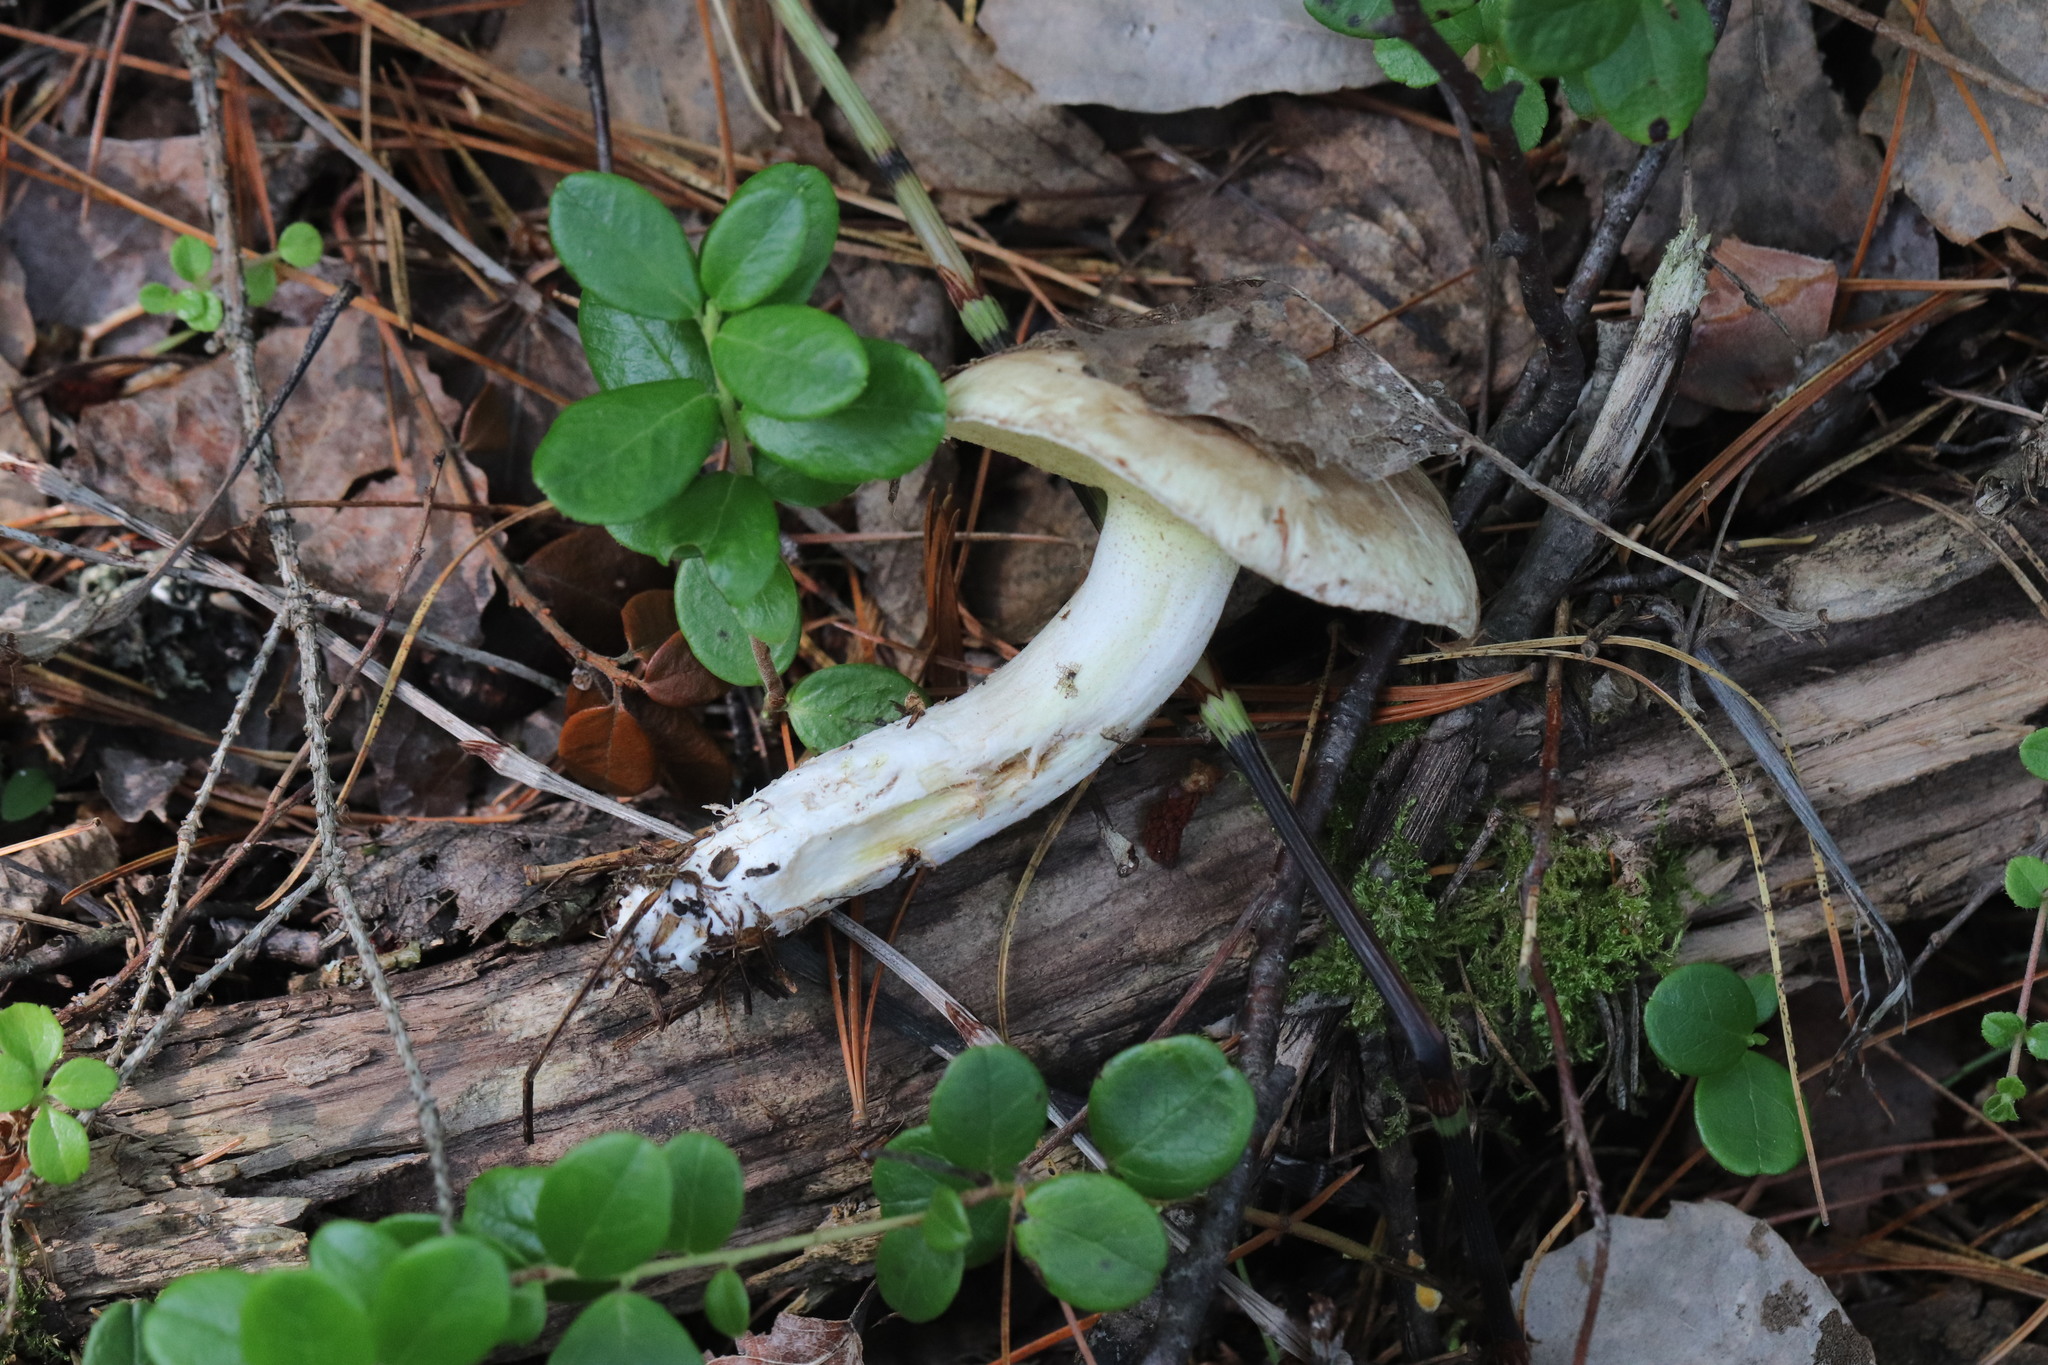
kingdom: Fungi
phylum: Basidiomycota
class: Agaricomycetes
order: Boletales
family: Suillaceae
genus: Suillus
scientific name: Suillus placidus
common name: Slippery white bolete
